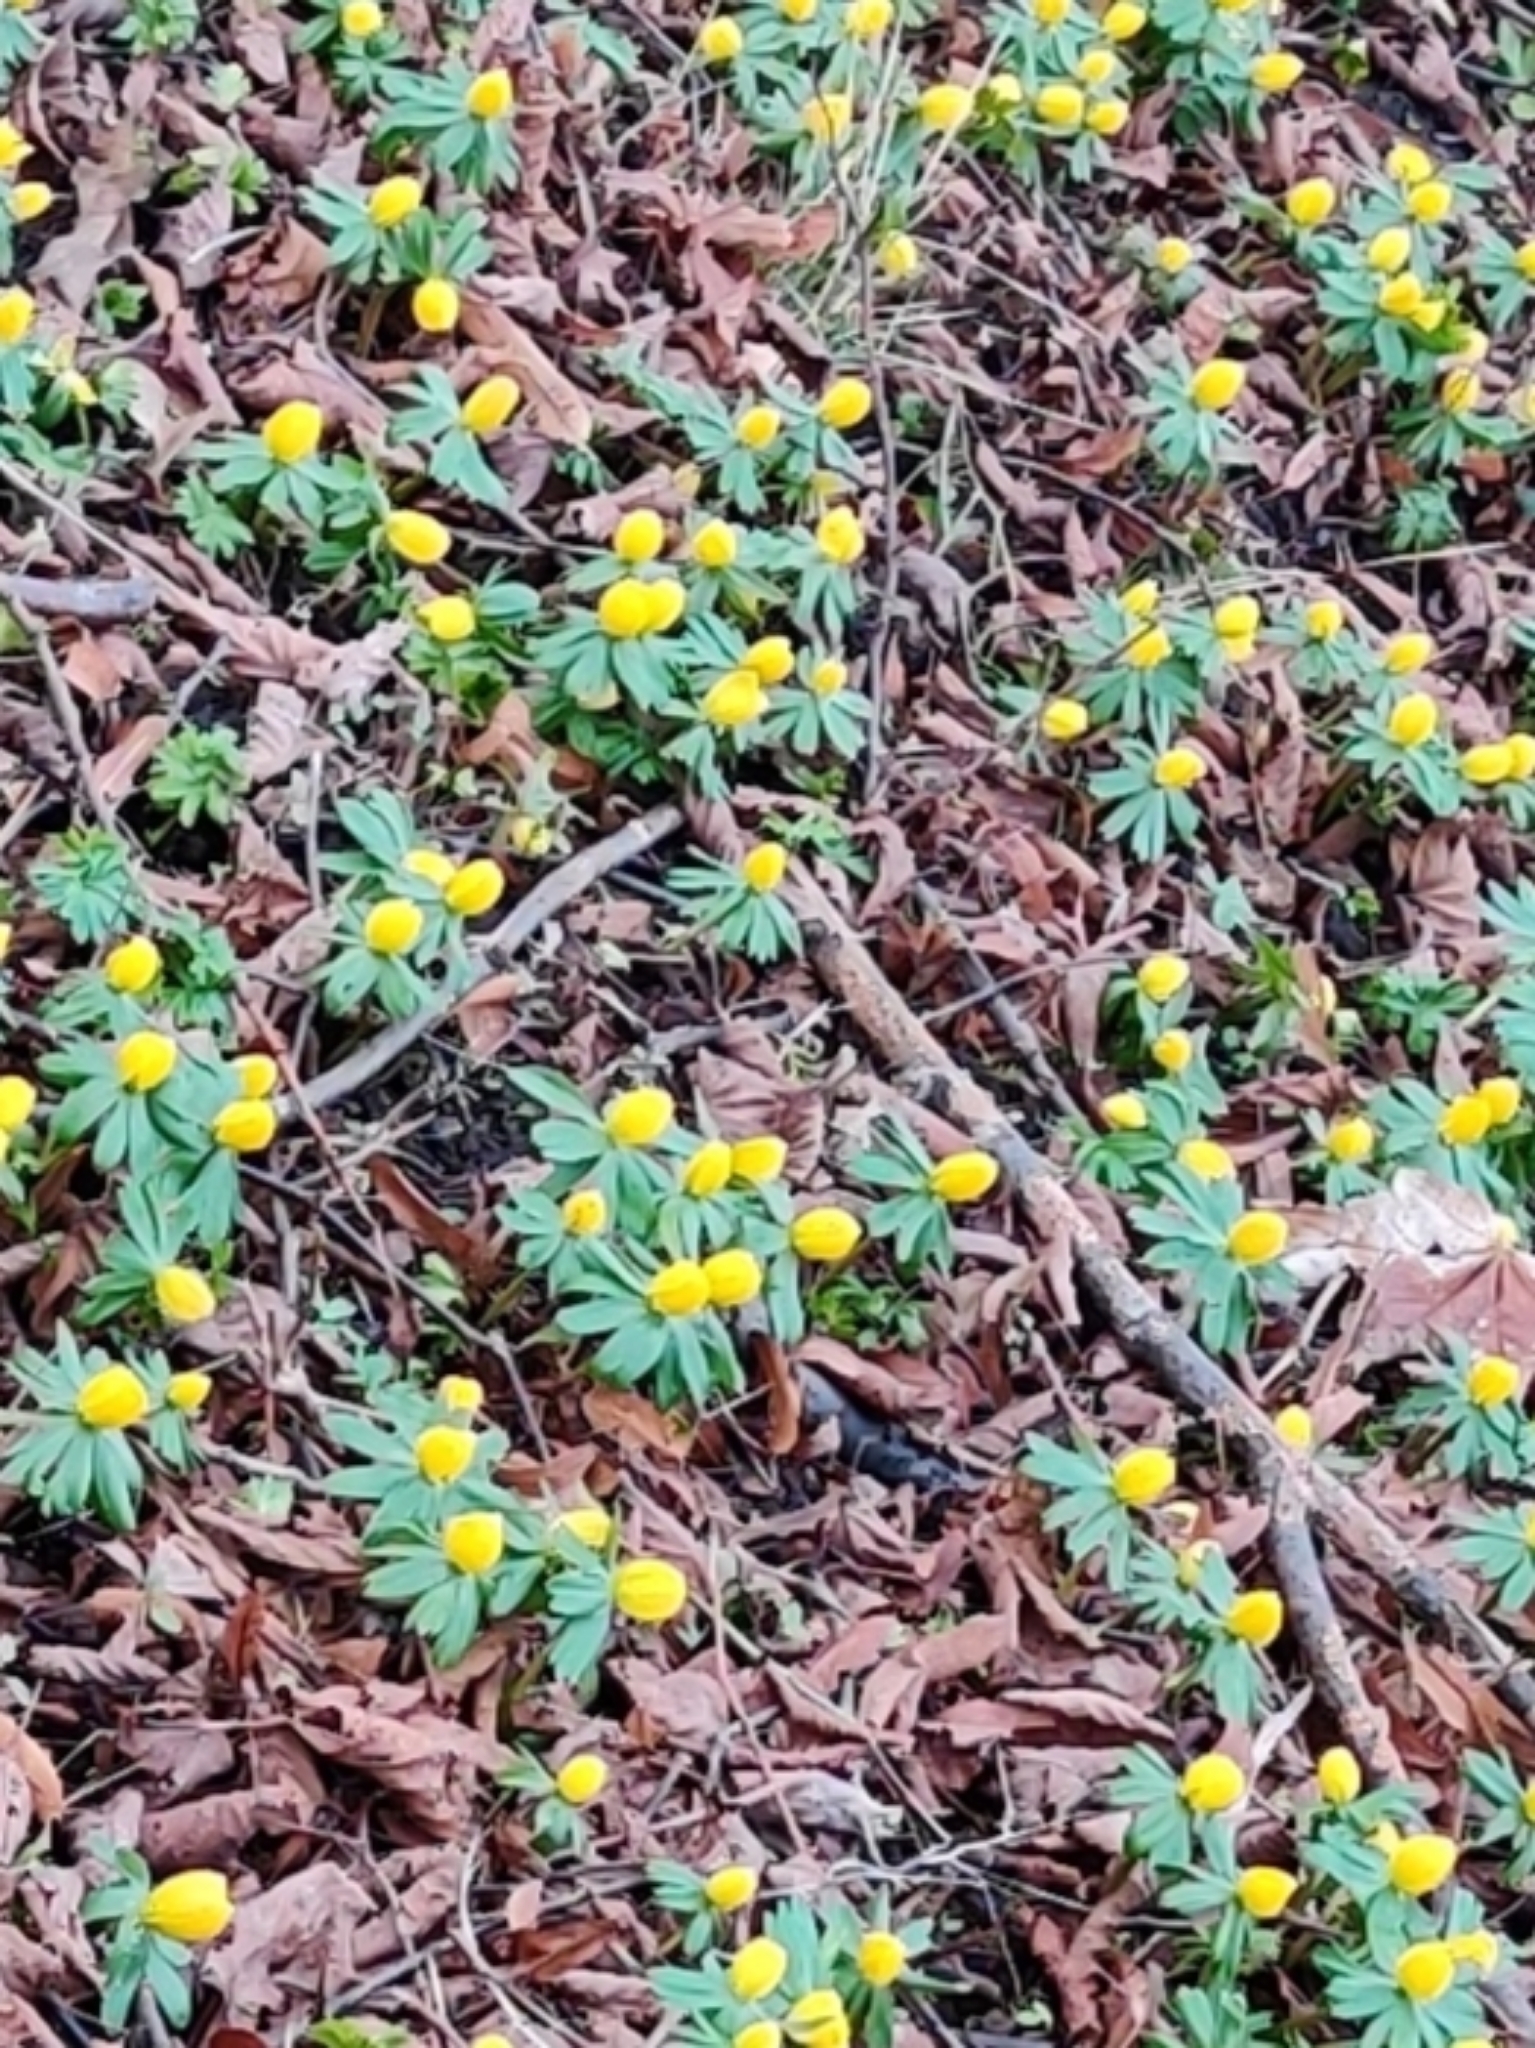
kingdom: Plantae
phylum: Tracheophyta
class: Magnoliopsida
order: Ranunculales
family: Ranunculaceae
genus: Eranthis
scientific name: Eranthis hyemalis
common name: Winter aconite
